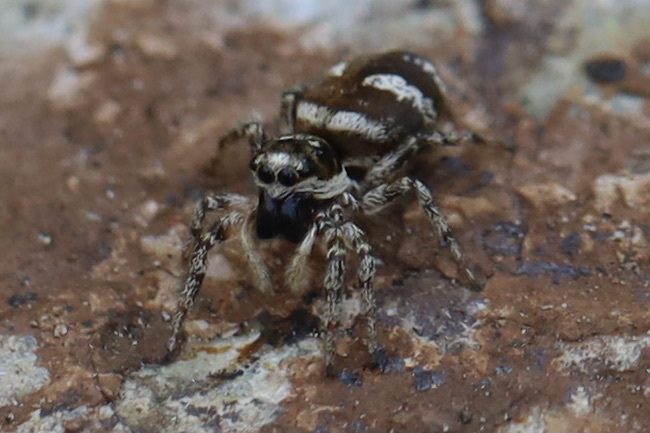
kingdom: Animalia
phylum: Arthropoda
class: Arachnida
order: Araneae
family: Salticidae
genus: Salticus
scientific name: Salticus scenicus
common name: Zebra jumper
